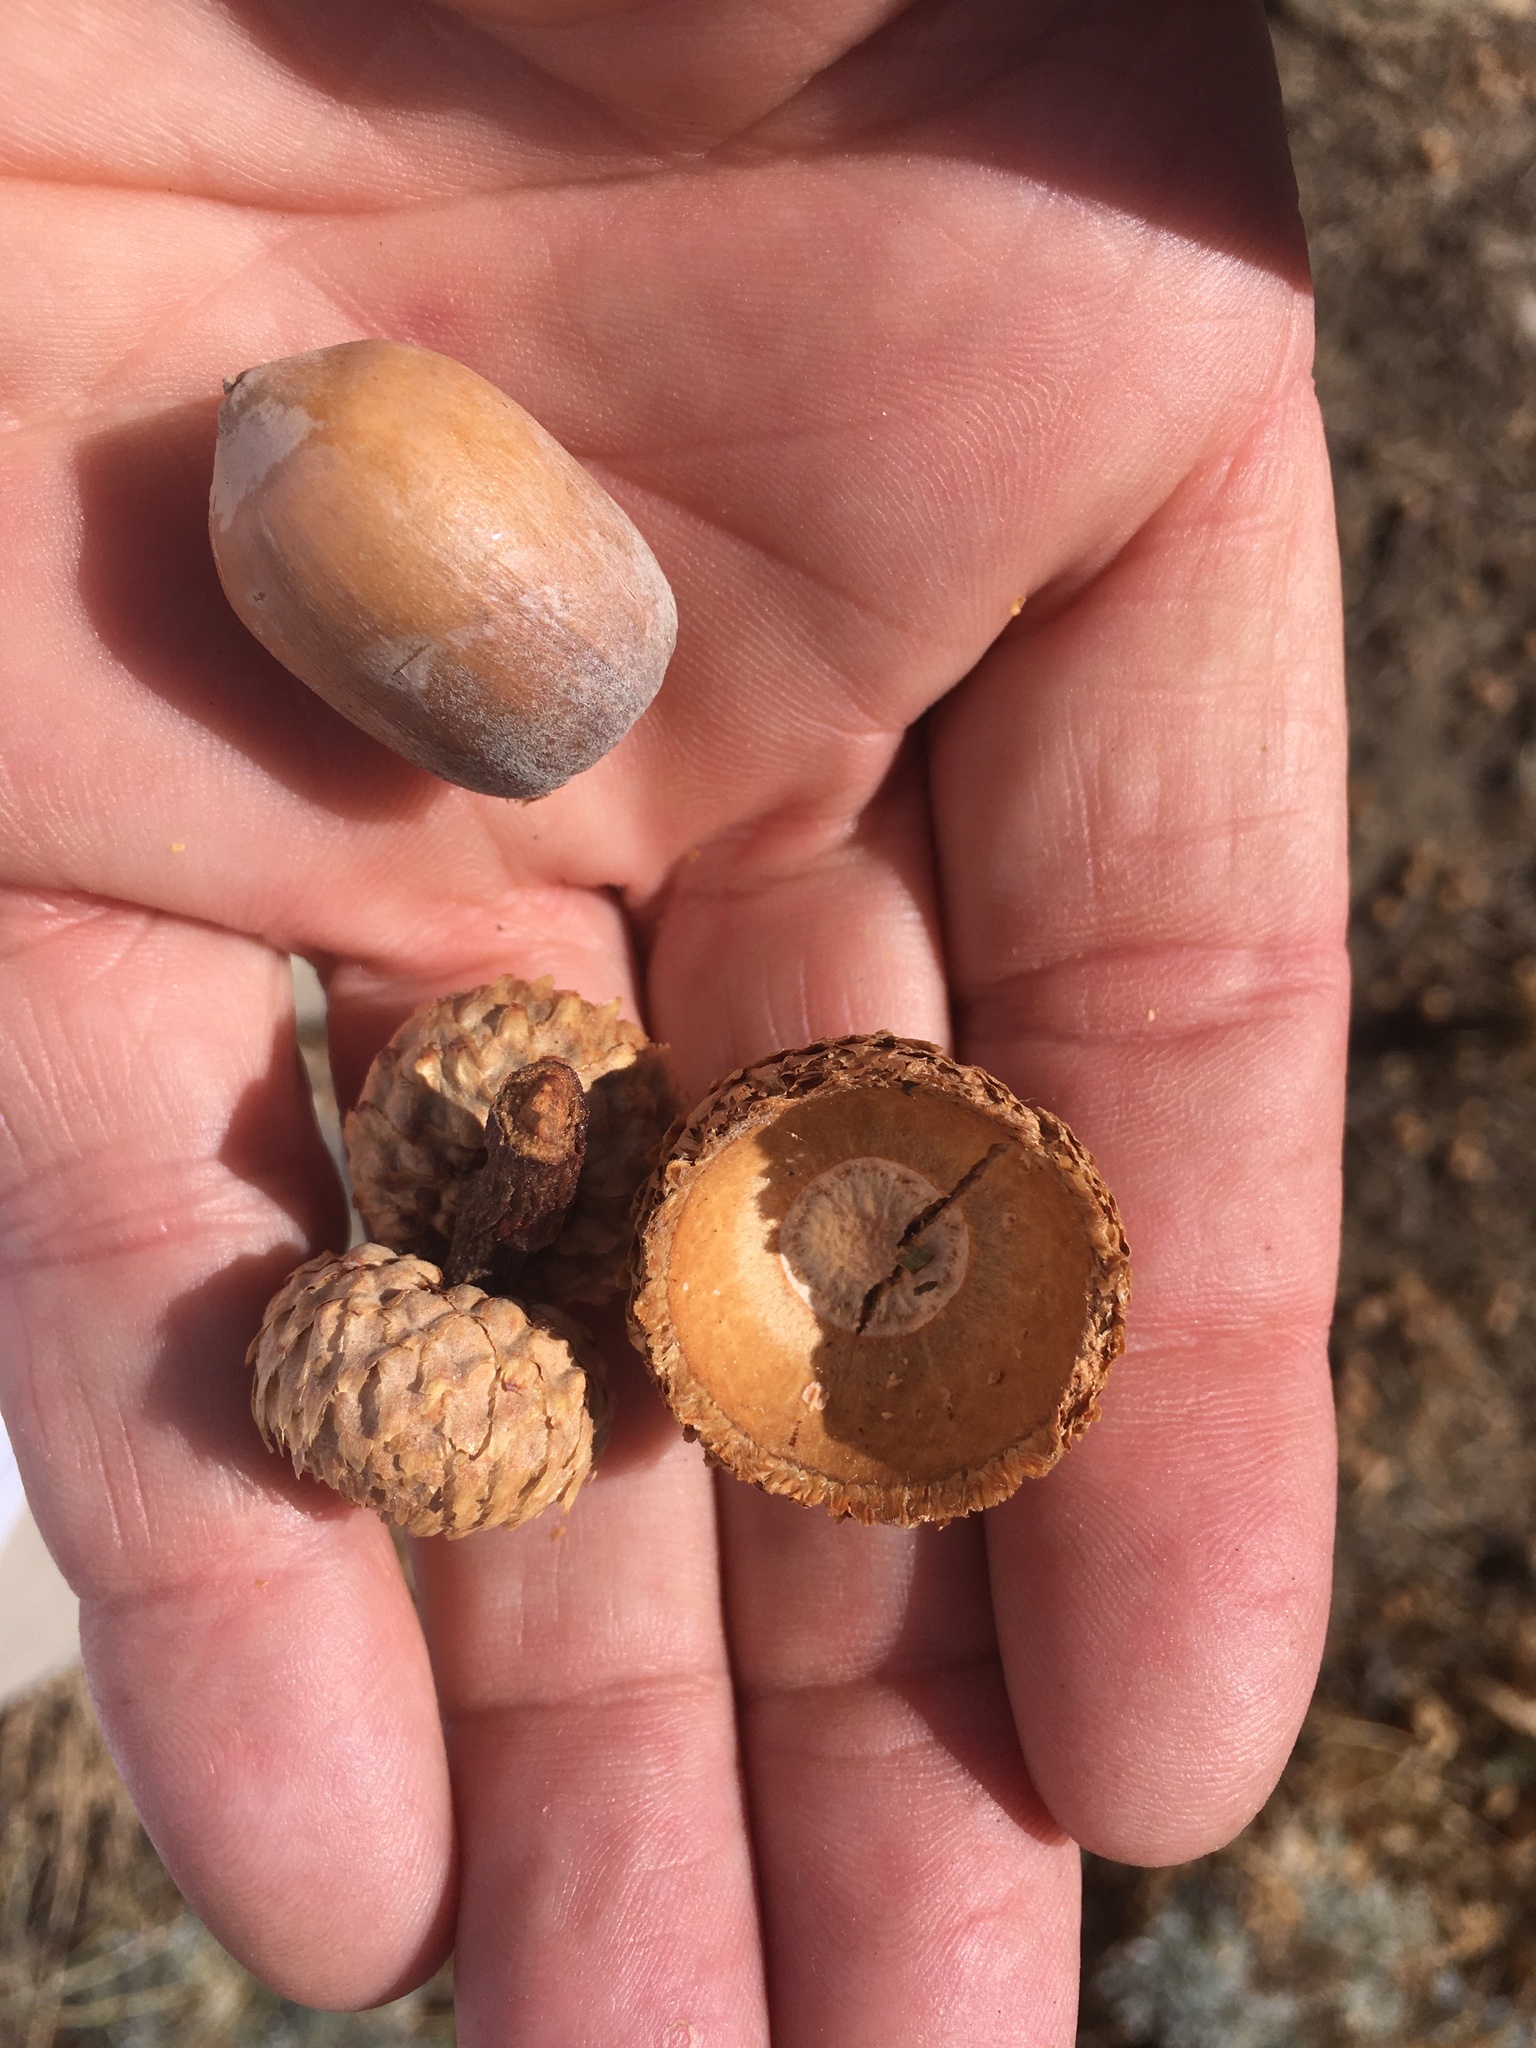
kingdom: Plantae
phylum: Tracheophyta
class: Magnoliopsida
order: Fagales
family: Fagaceae
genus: Quercus
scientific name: Quercus kelloggii
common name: California black oak
